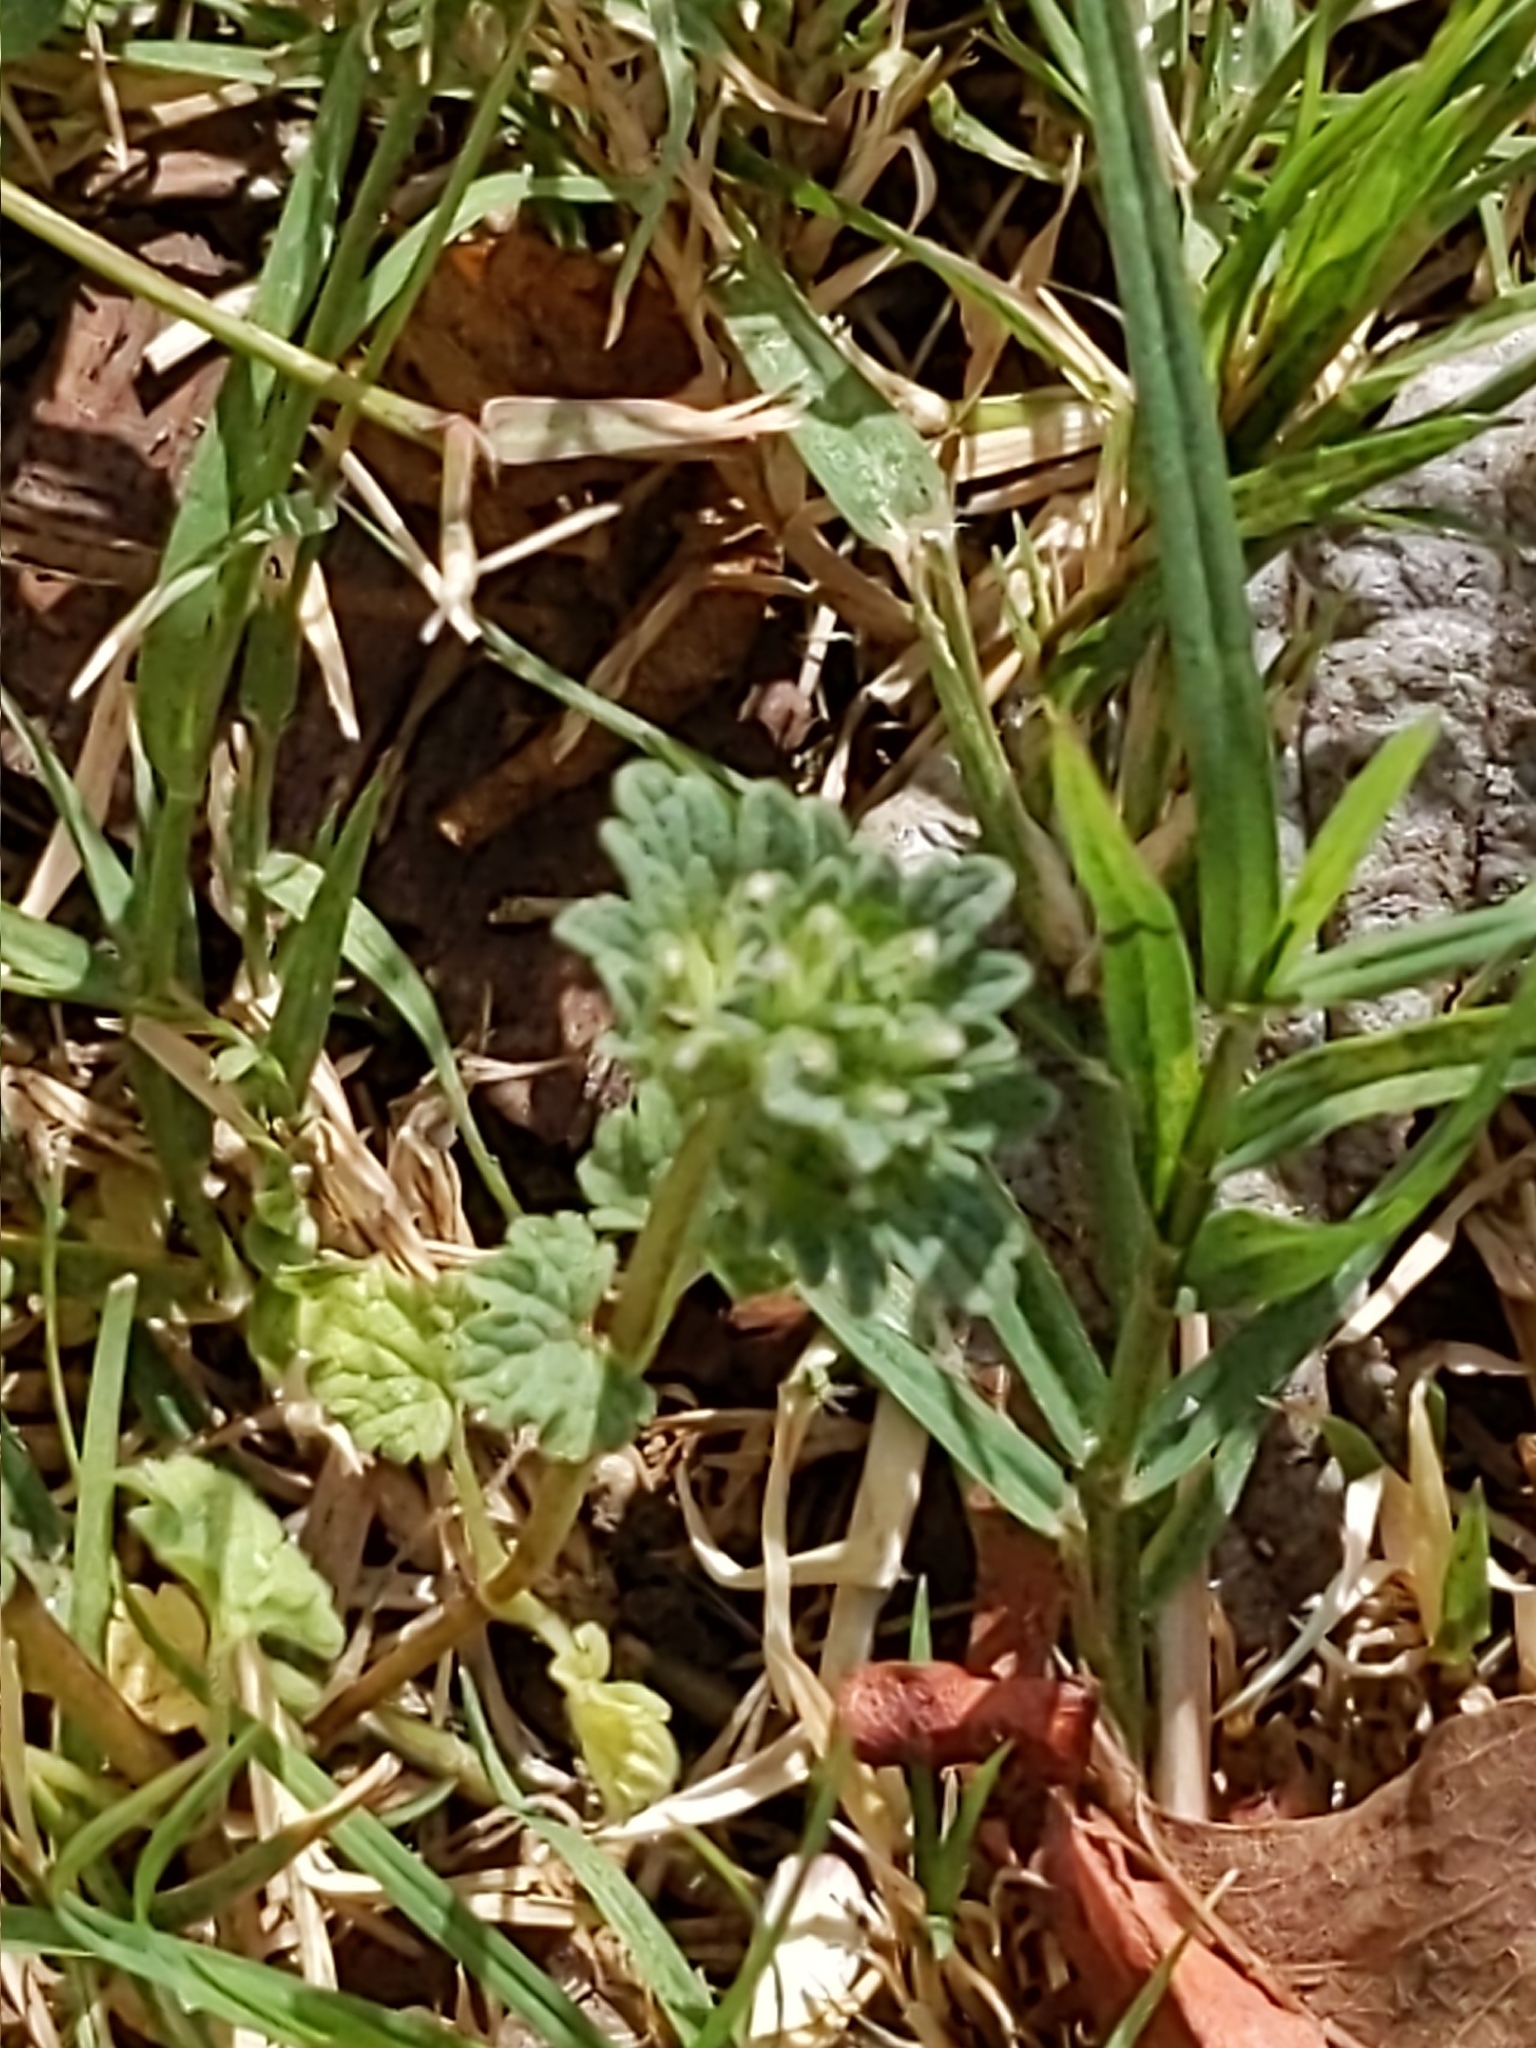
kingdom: Plantae
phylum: Tracheophyta
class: Magnoliopsida
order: Lamiales
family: Lamiaceae
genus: Lamium
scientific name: Lamium amplexicaule
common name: Henbit dead-nettle
